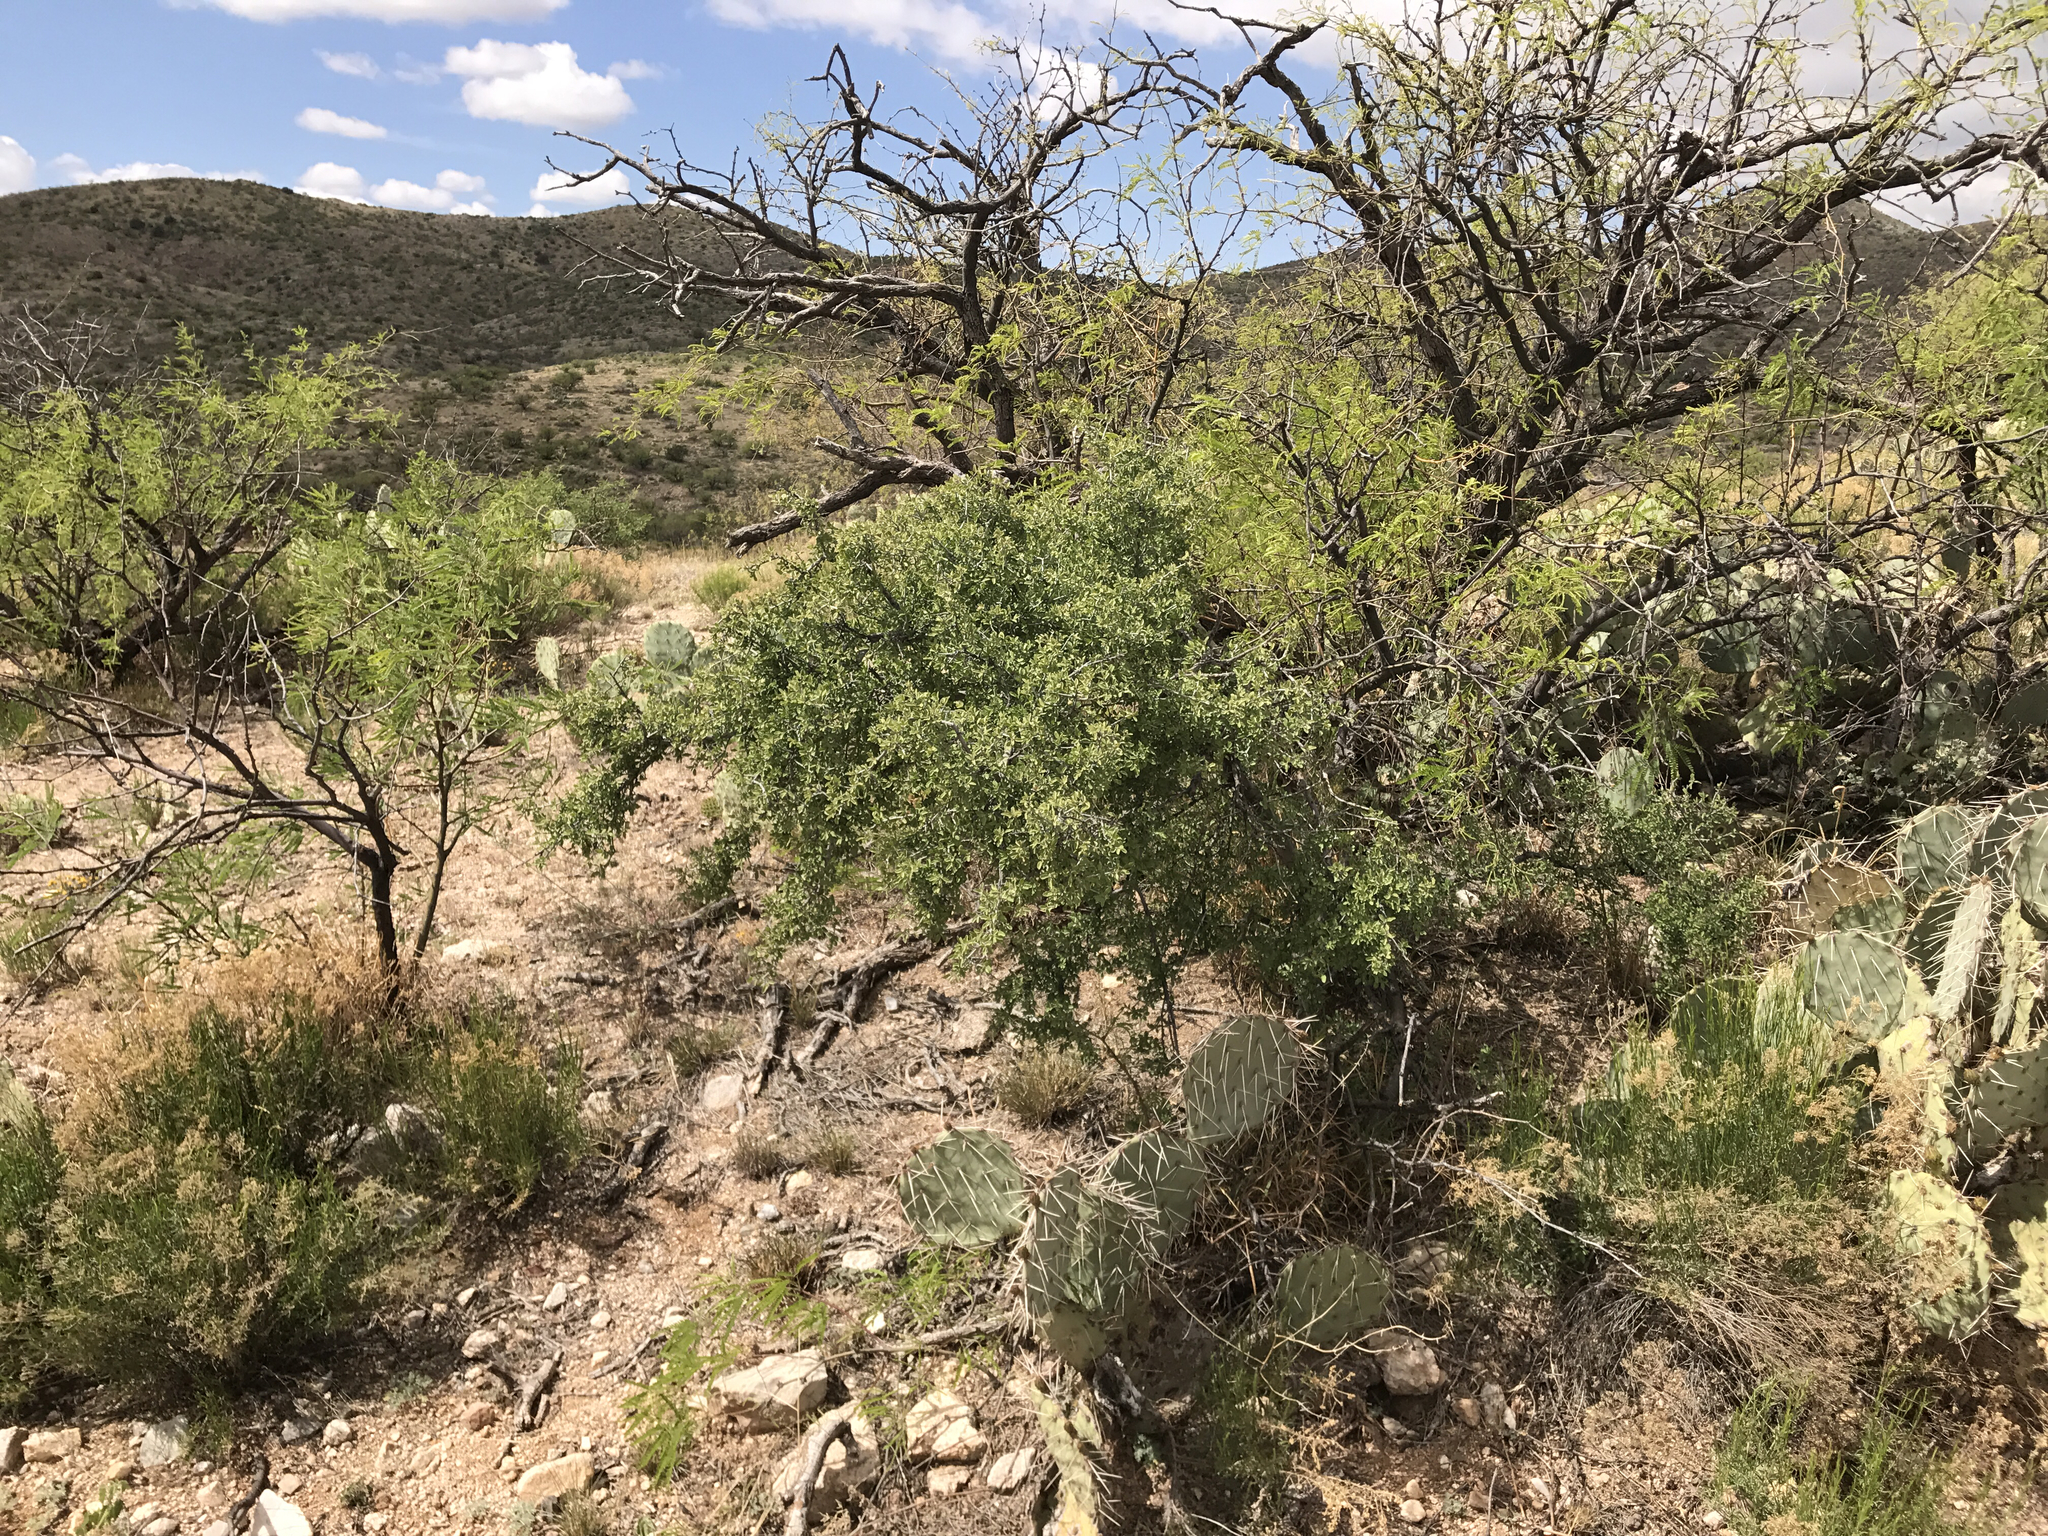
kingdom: Plantae
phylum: Tracheophyta
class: Magnoliopsida
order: Rosales
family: Rhamnaceae
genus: Sarcomphalus
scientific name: Sarcomphalus obtusifolius
